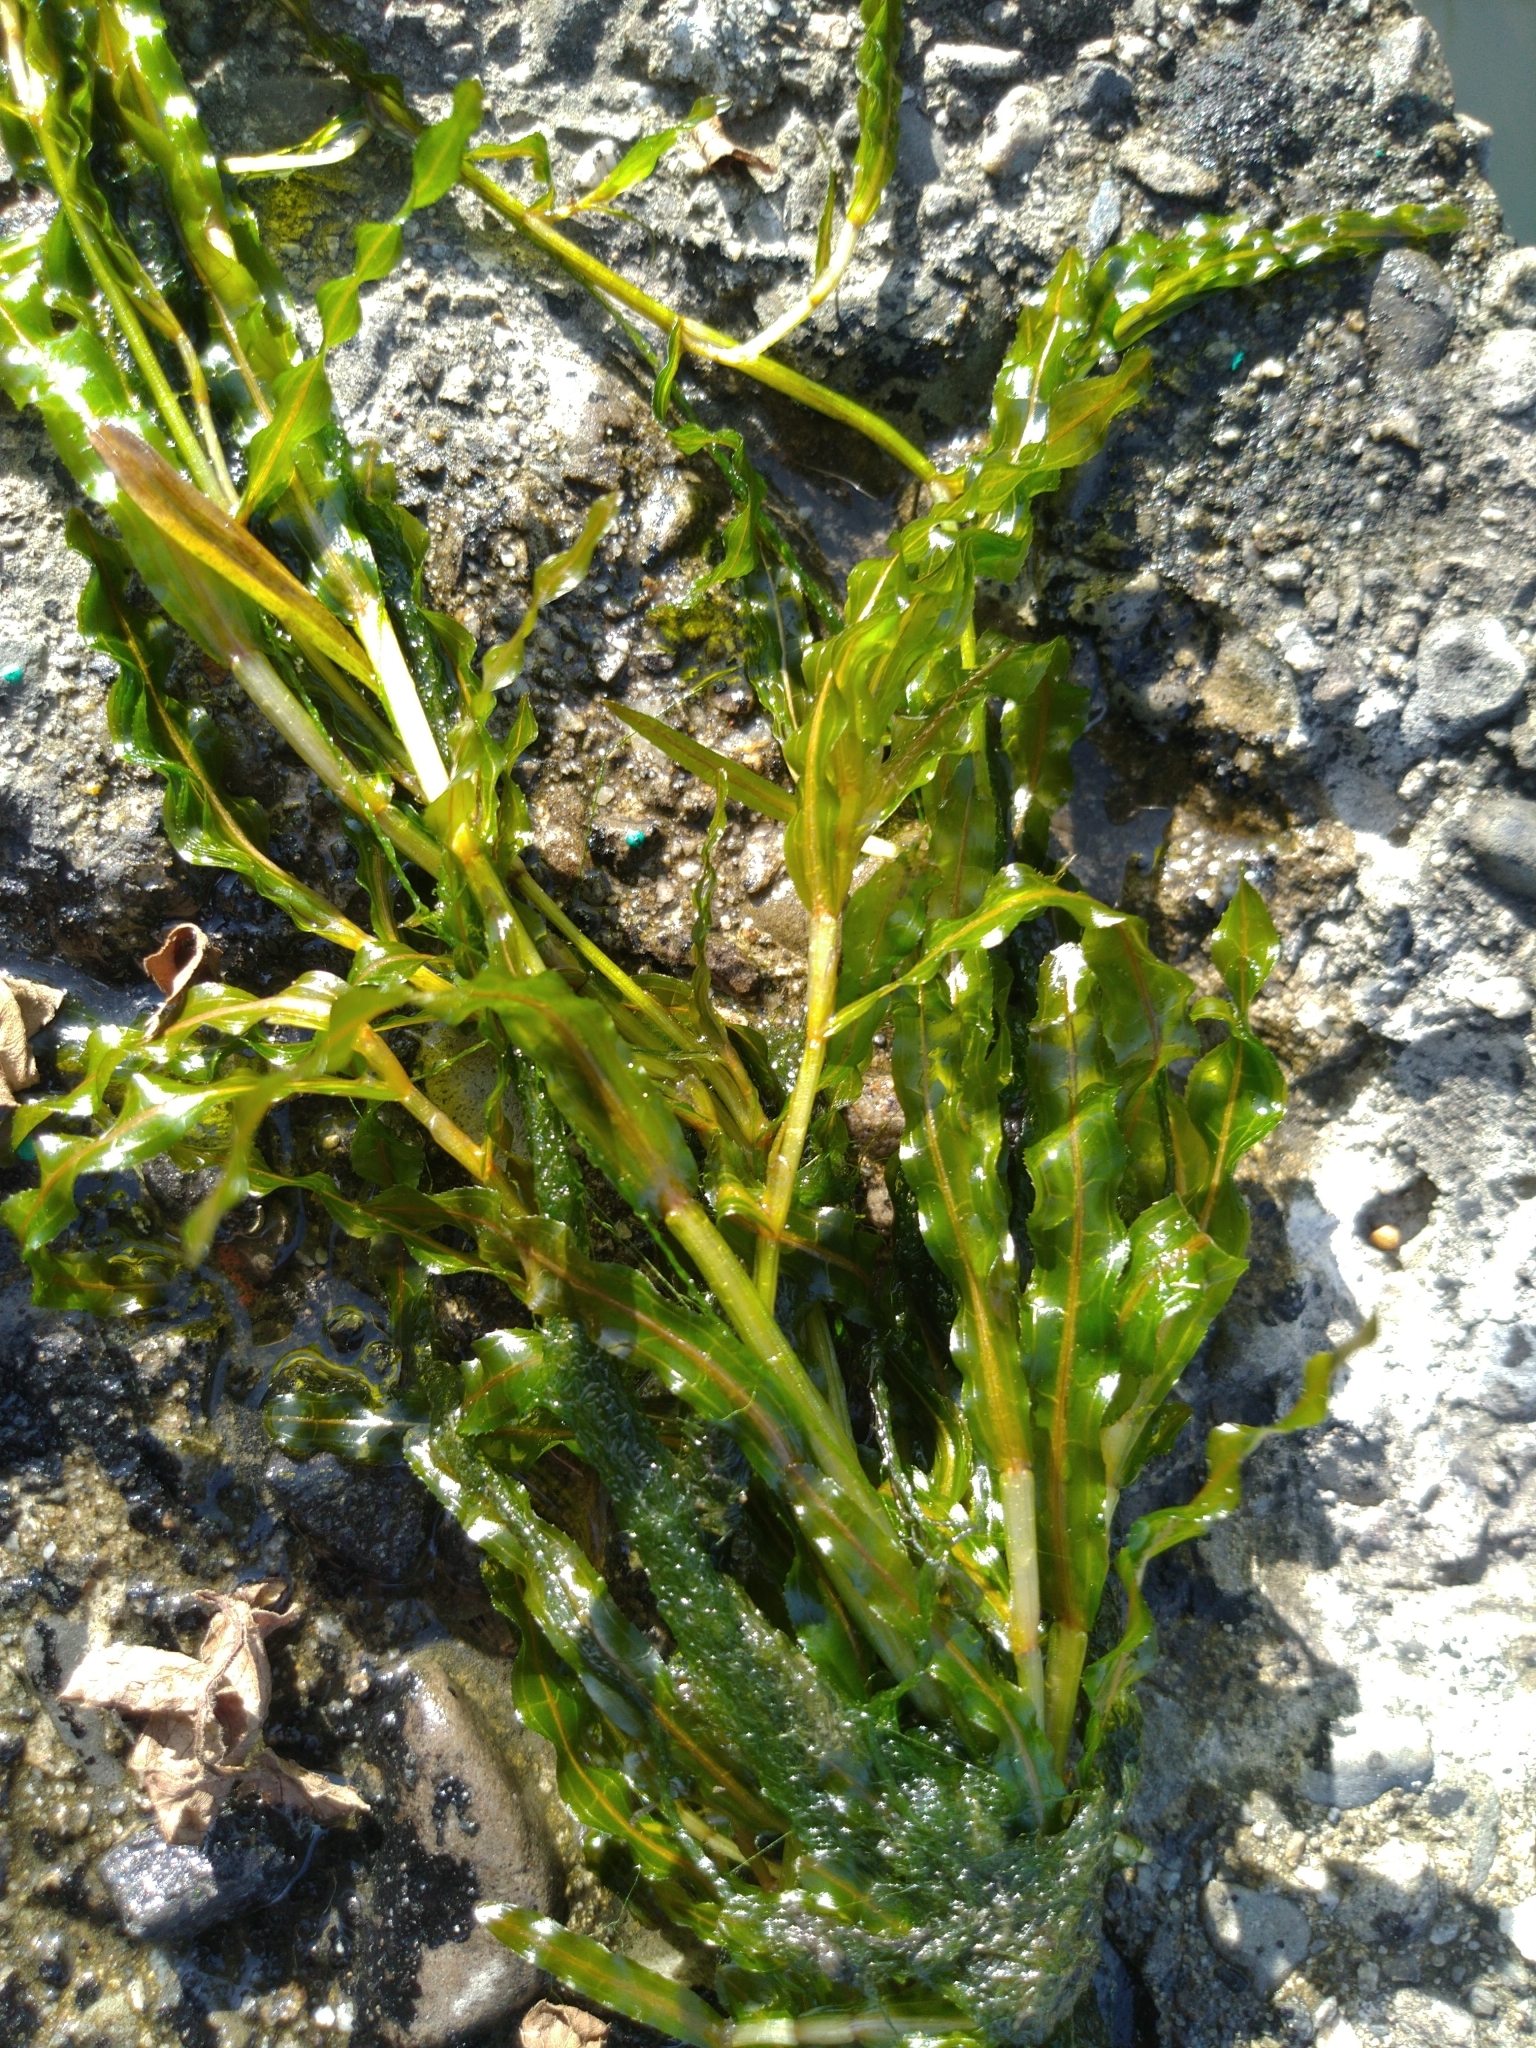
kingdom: Plantae
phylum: Tracheophyta
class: Liliopsida
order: Alismatales
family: Potamogetonaceae
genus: Potamogeton
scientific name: Potamogeton crispus
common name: Curled pondweed
